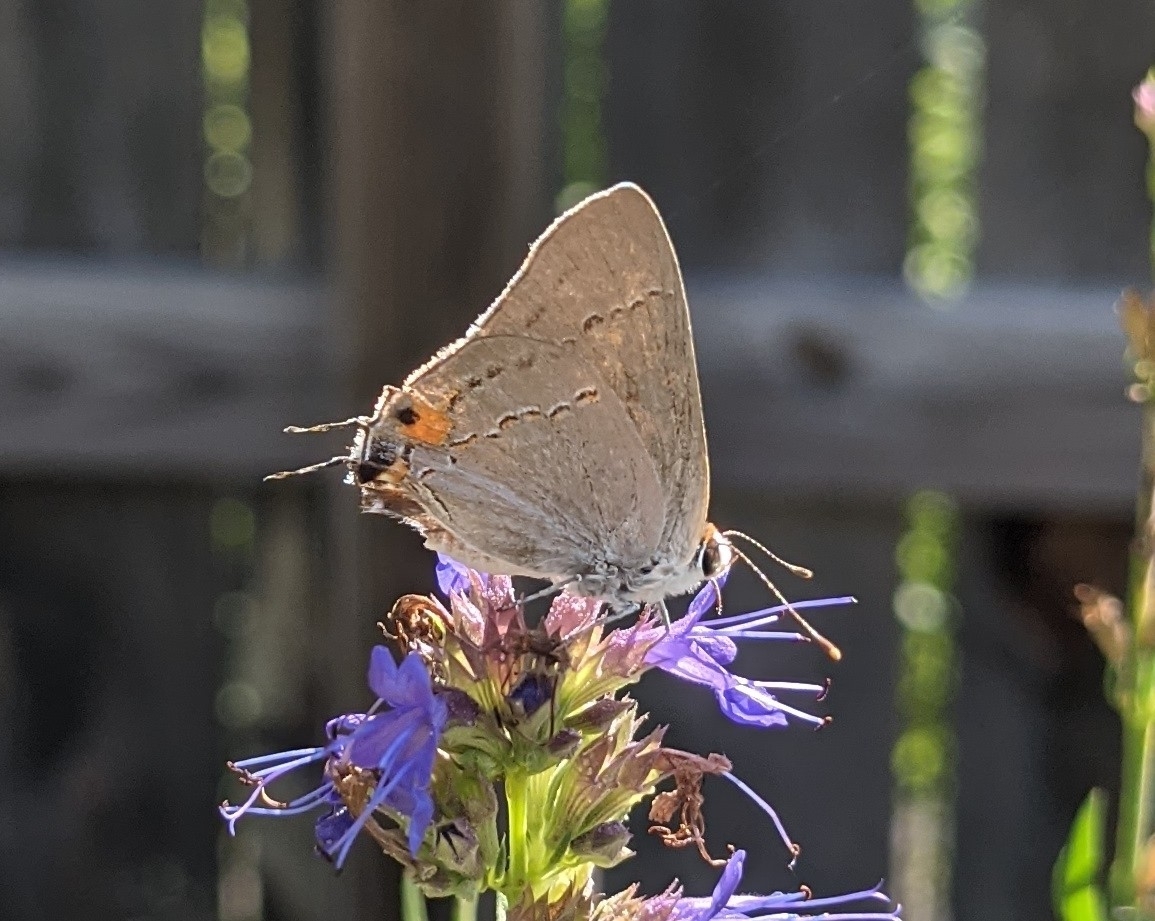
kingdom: Animalia
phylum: Arthropoda
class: Insecta
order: Lepidoptera
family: Lycaenidae
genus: Strymon
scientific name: Strymon melinus
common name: Gray hairstreak
